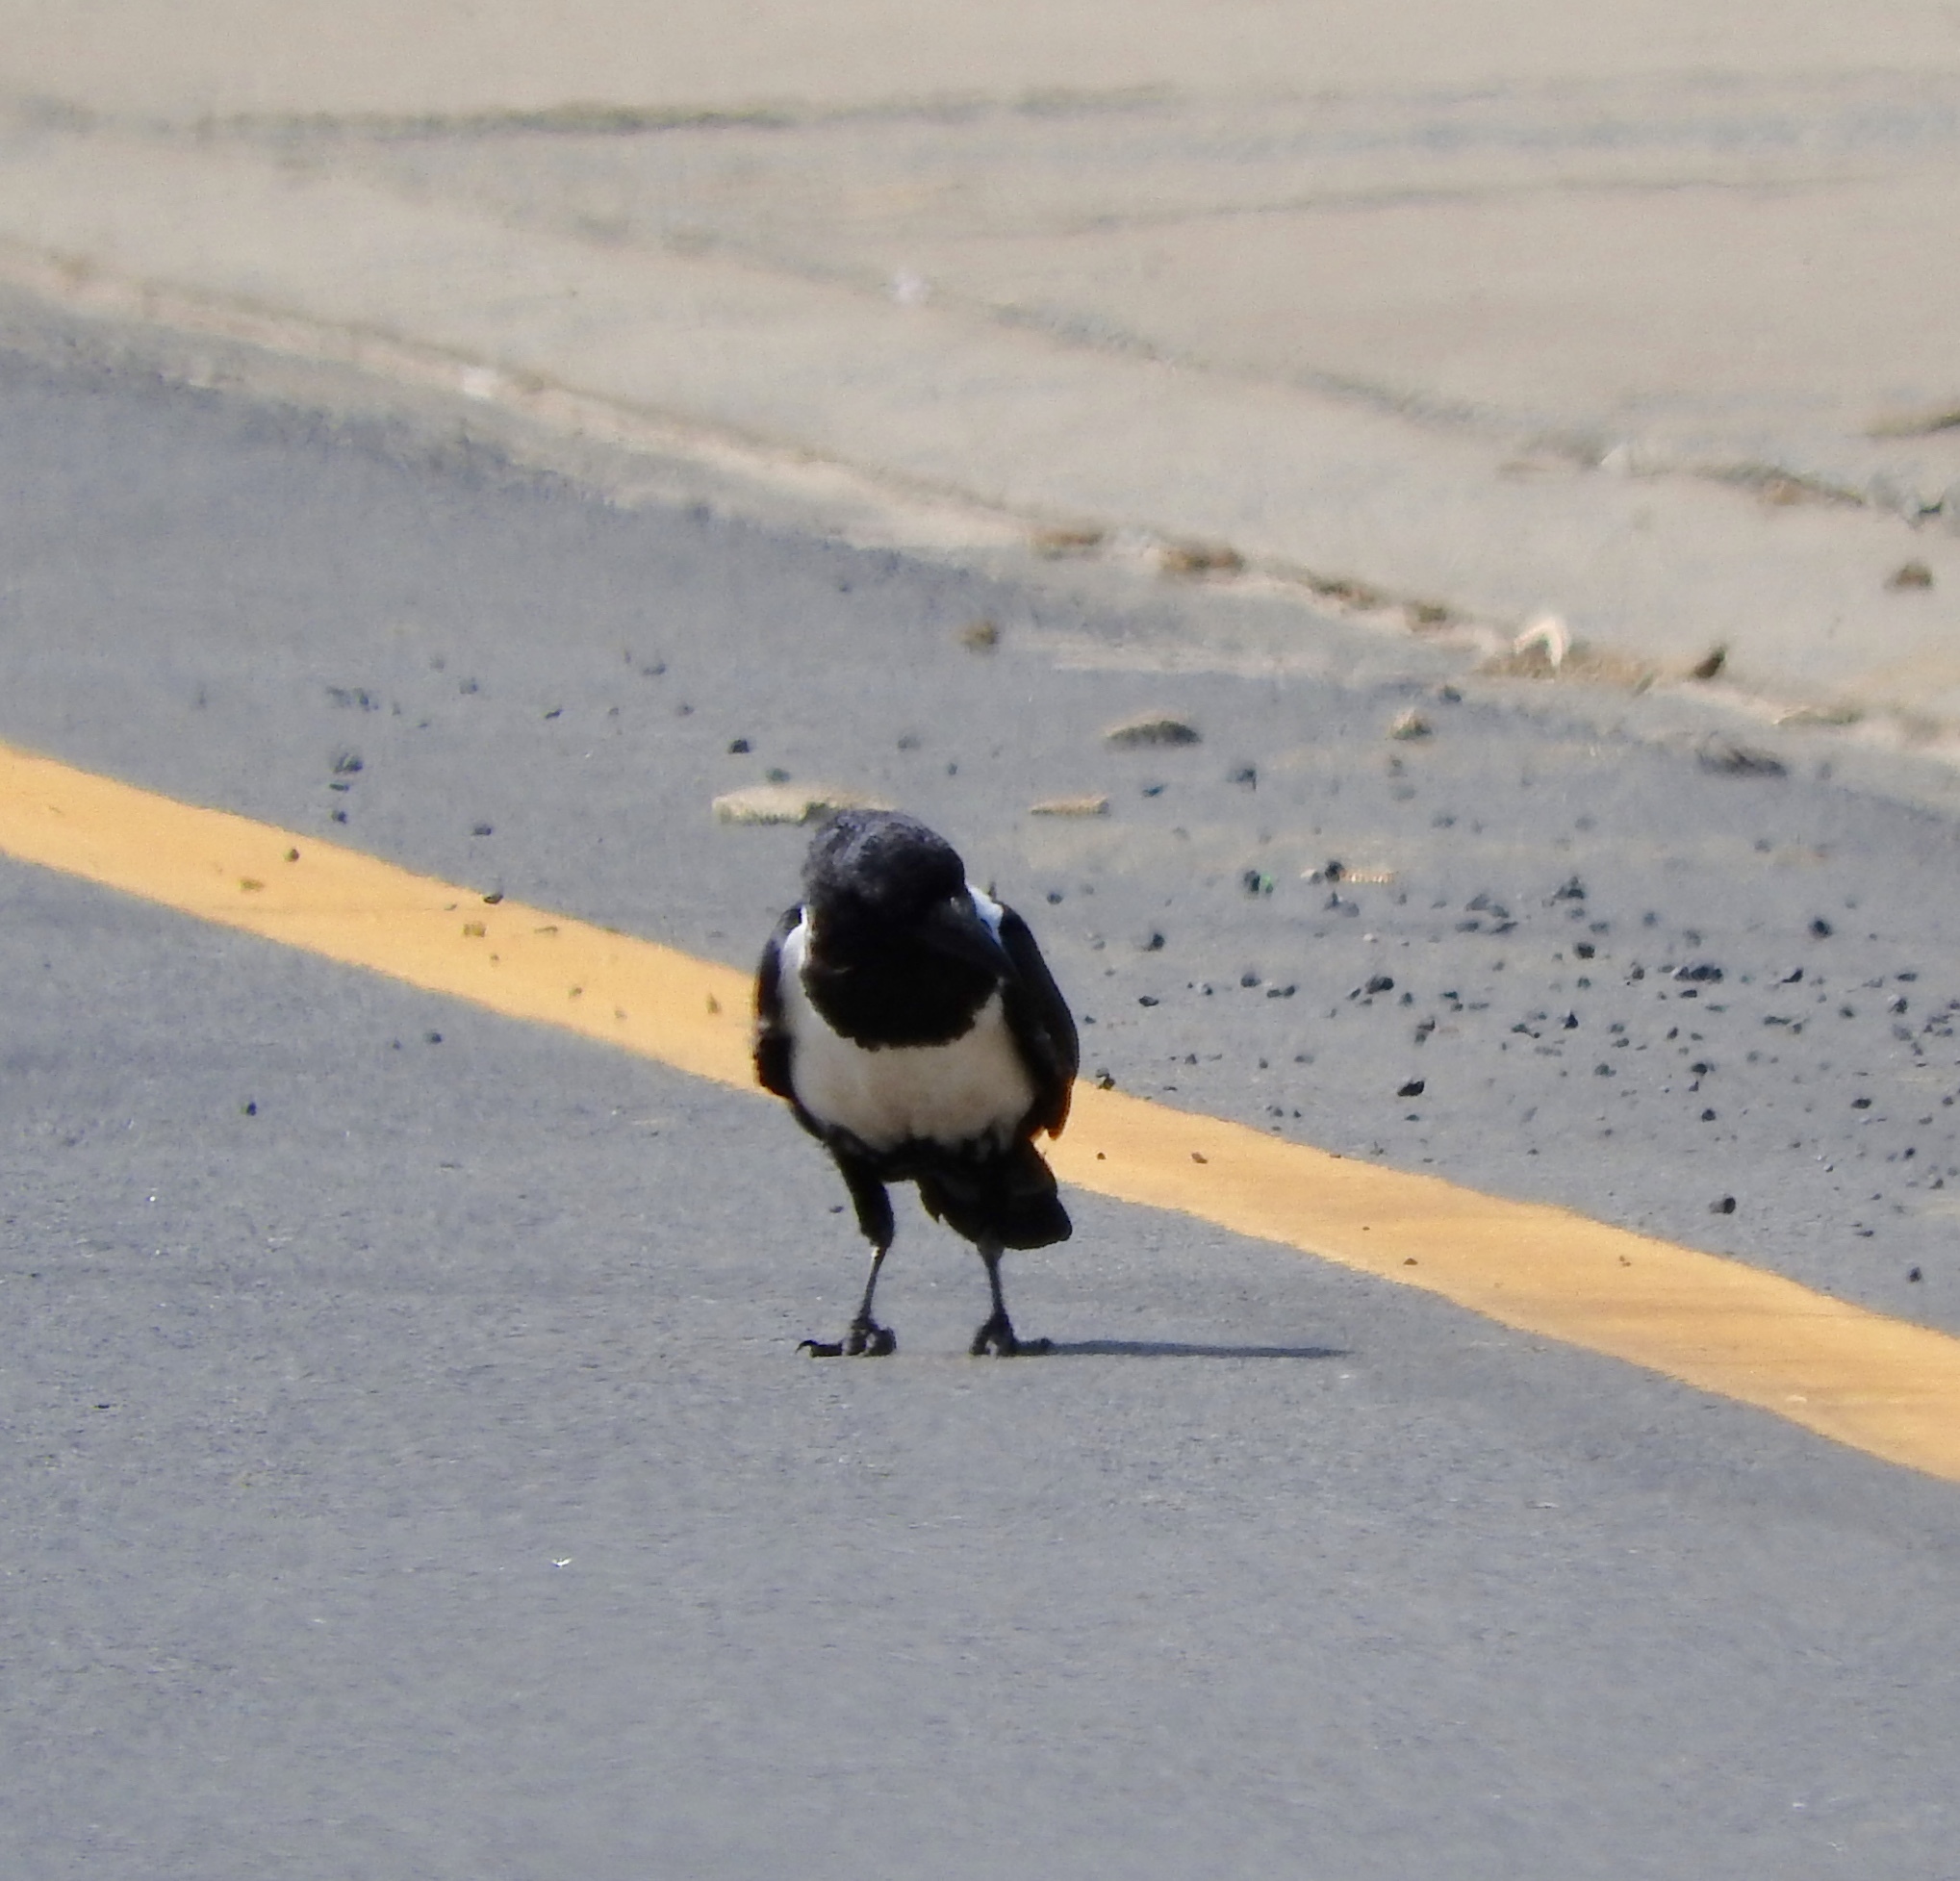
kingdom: Animalia
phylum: Chordata
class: Aves
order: Passeriformes
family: Corvidae
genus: Corvus
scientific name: Corvus albus
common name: Pied crow
